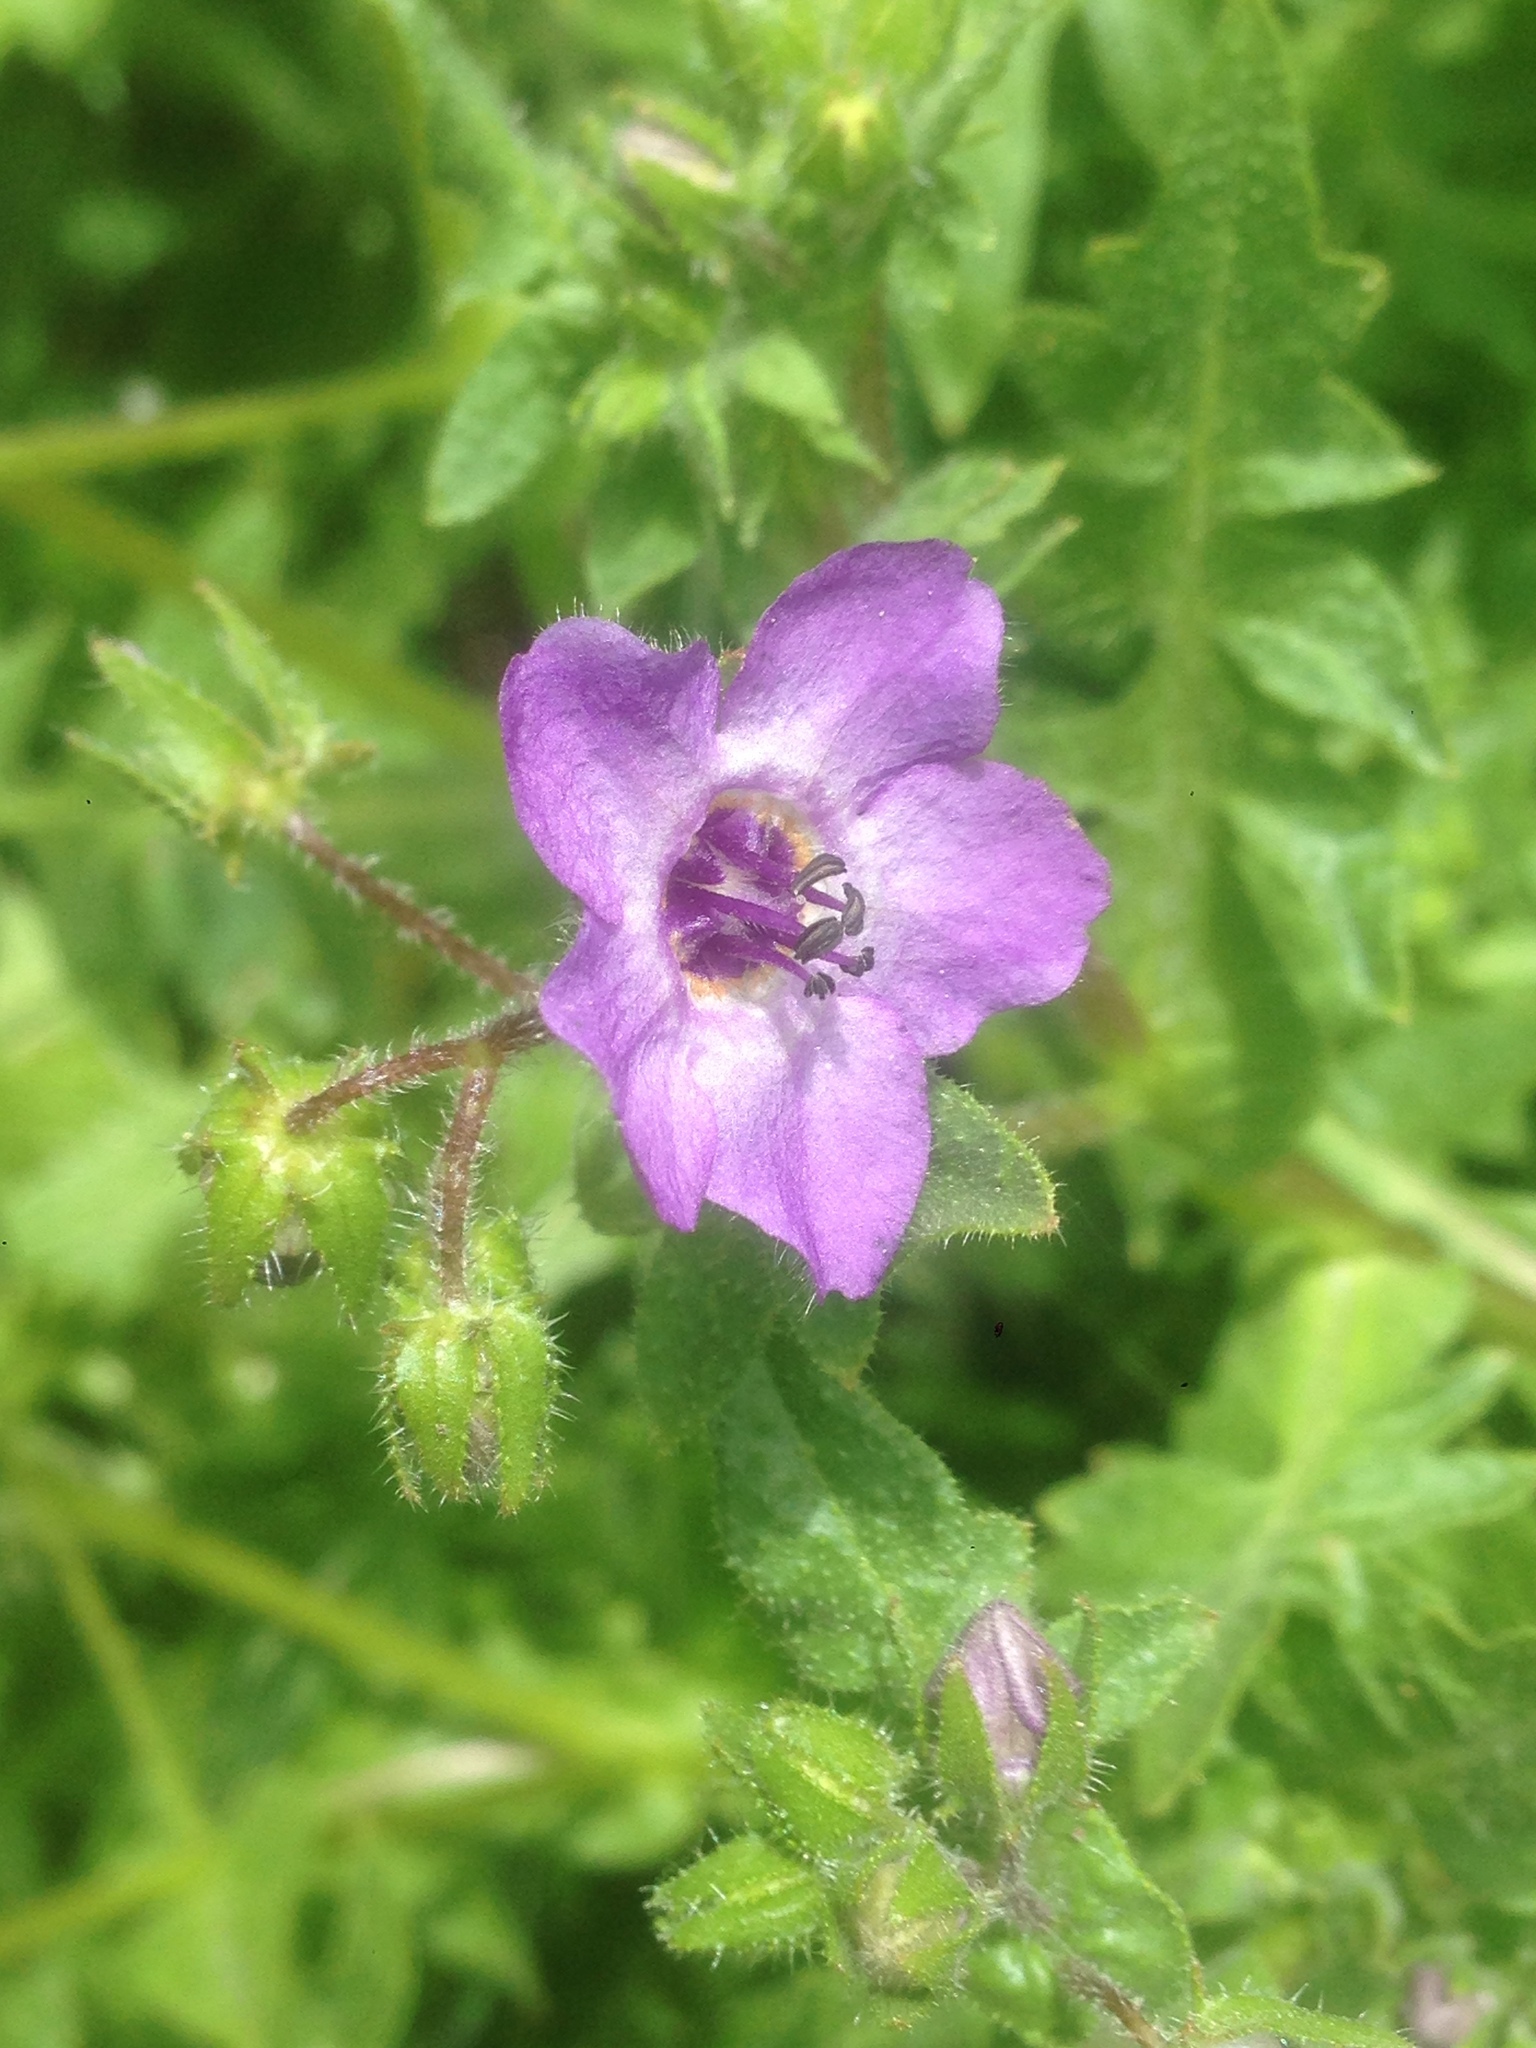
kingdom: Plantae
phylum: Tracheophyta
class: Magnoliopsida
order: Boraginales
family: Hydrophyllaceae
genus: Pholistoma
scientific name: Pholistoma auritum
